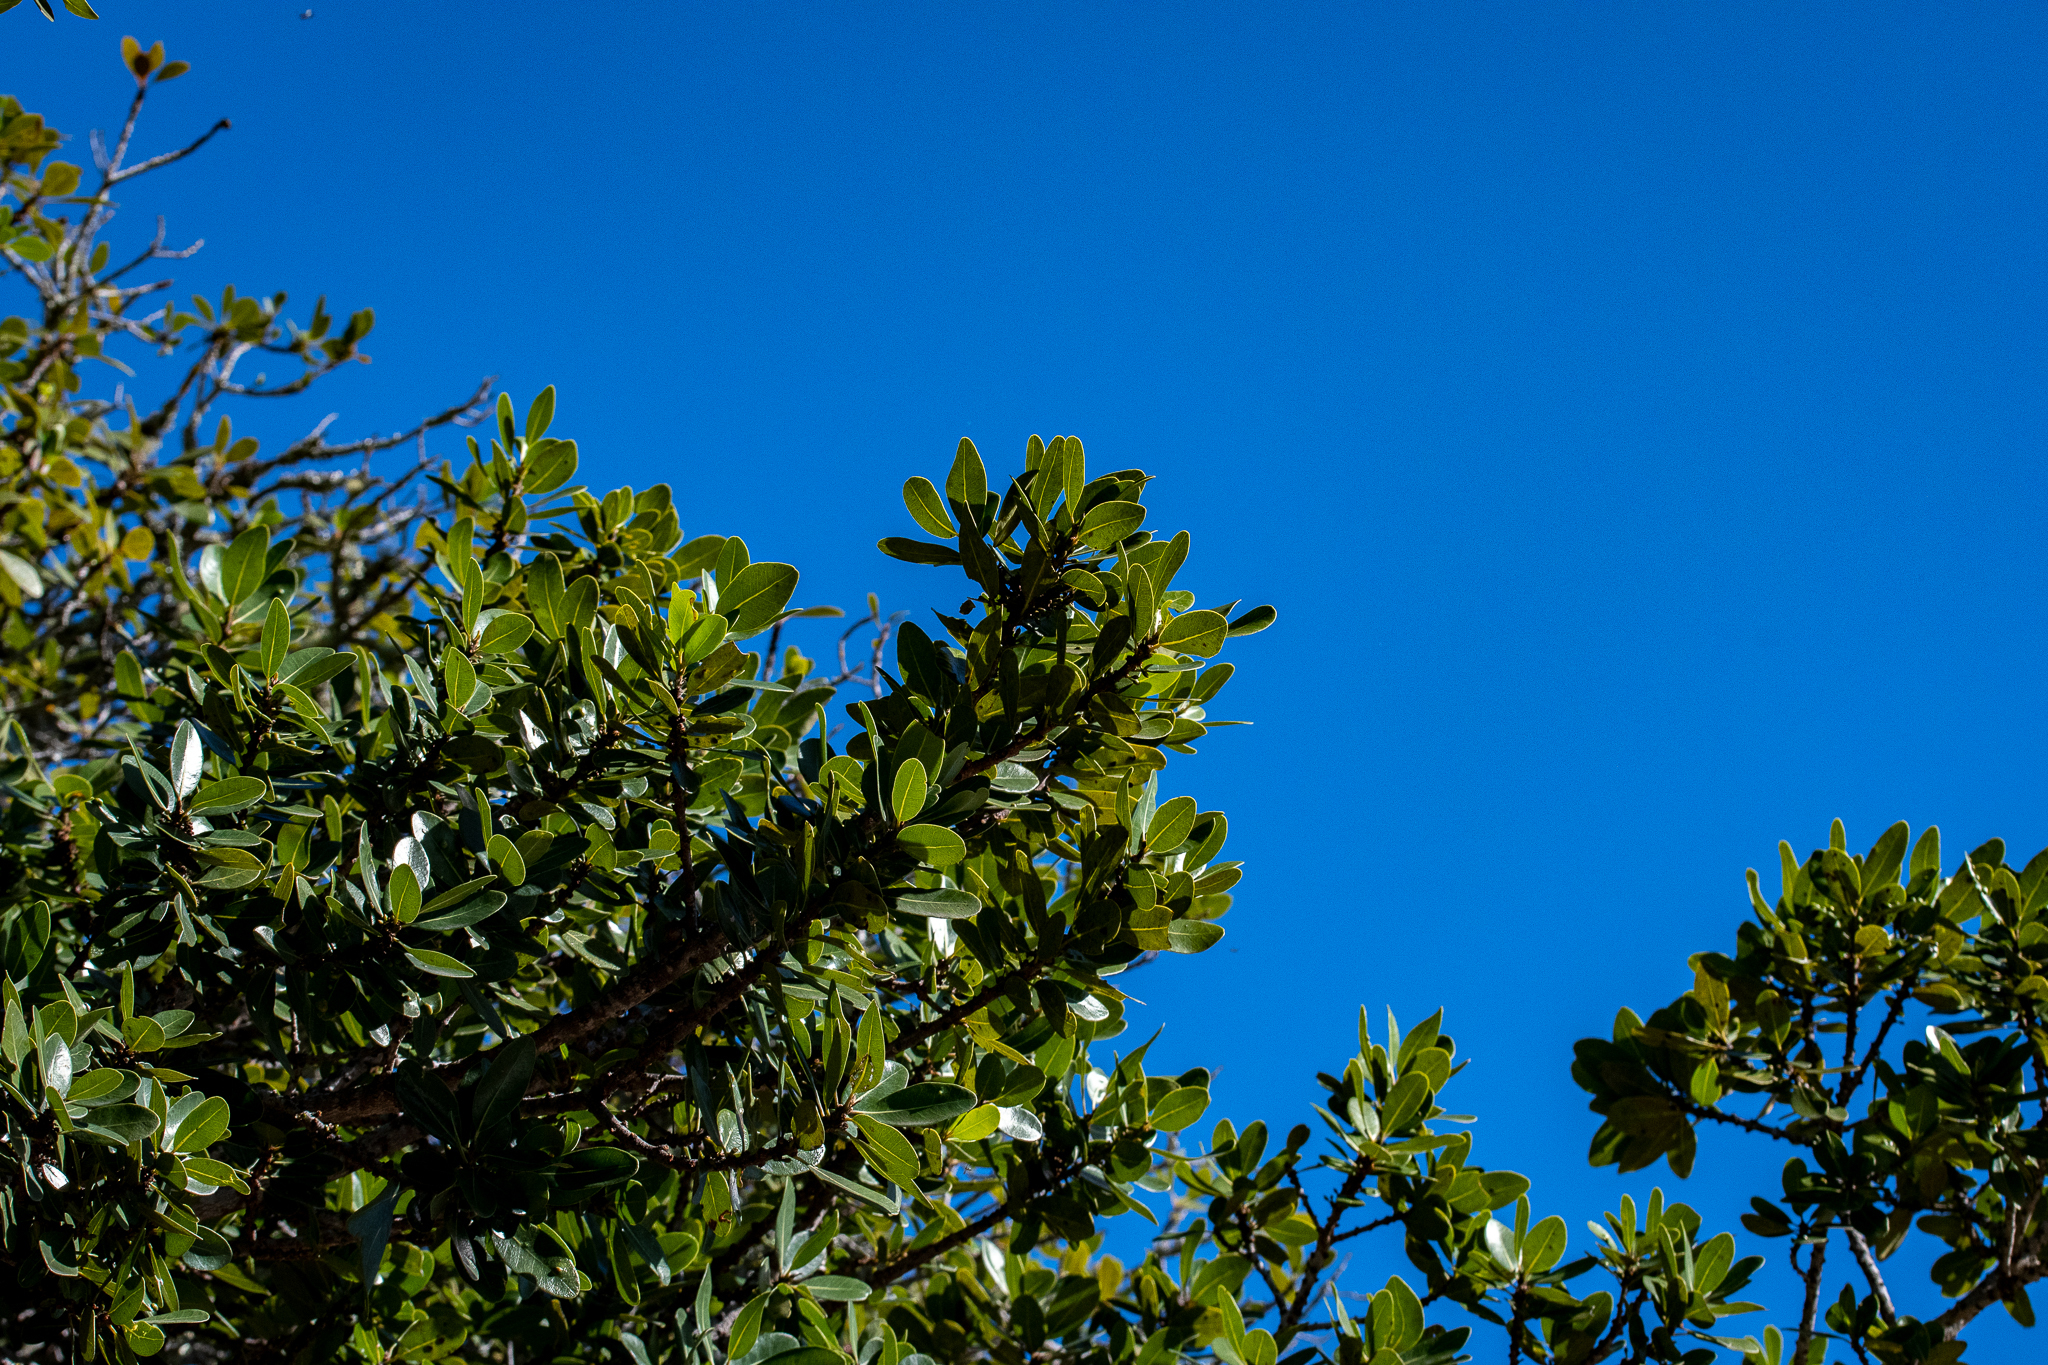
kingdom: Plantae
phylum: Tracheophyta
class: Magnoliopsida
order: Ericales
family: Sapotaceae
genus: Sideroxylon
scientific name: Sideroxylon inerme
